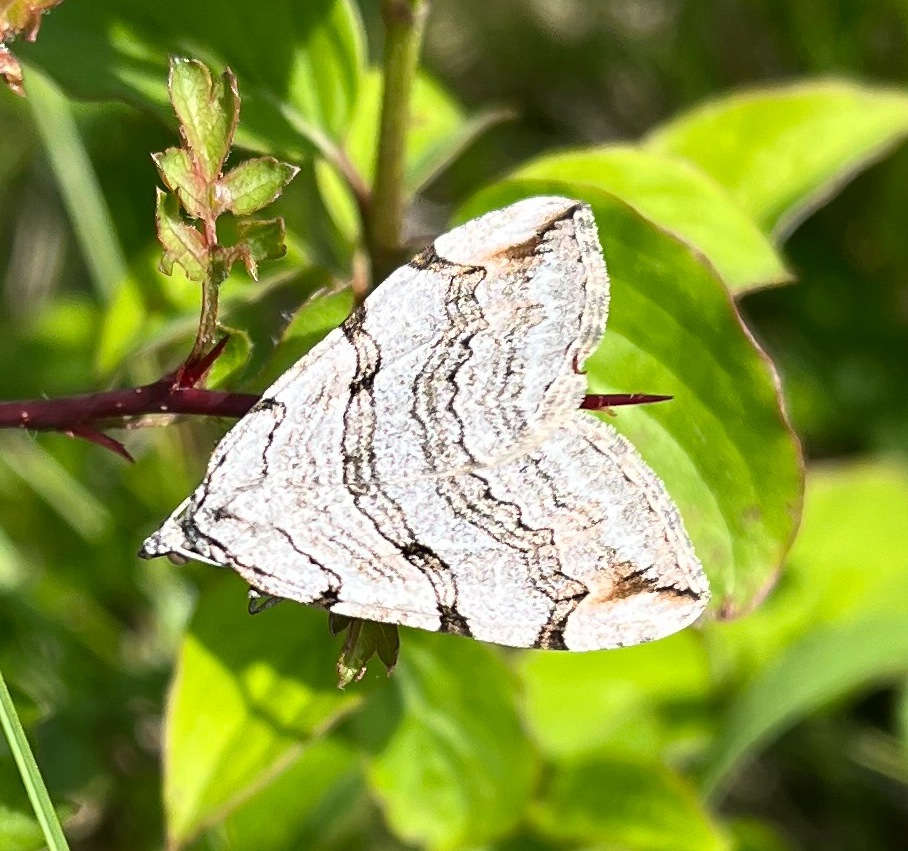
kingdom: Animalia
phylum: Arthropoda
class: Insecta
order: Lepidoptera
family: Geometridae
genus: Aplocera
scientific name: Aplocera plagiata
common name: Treble-bar
